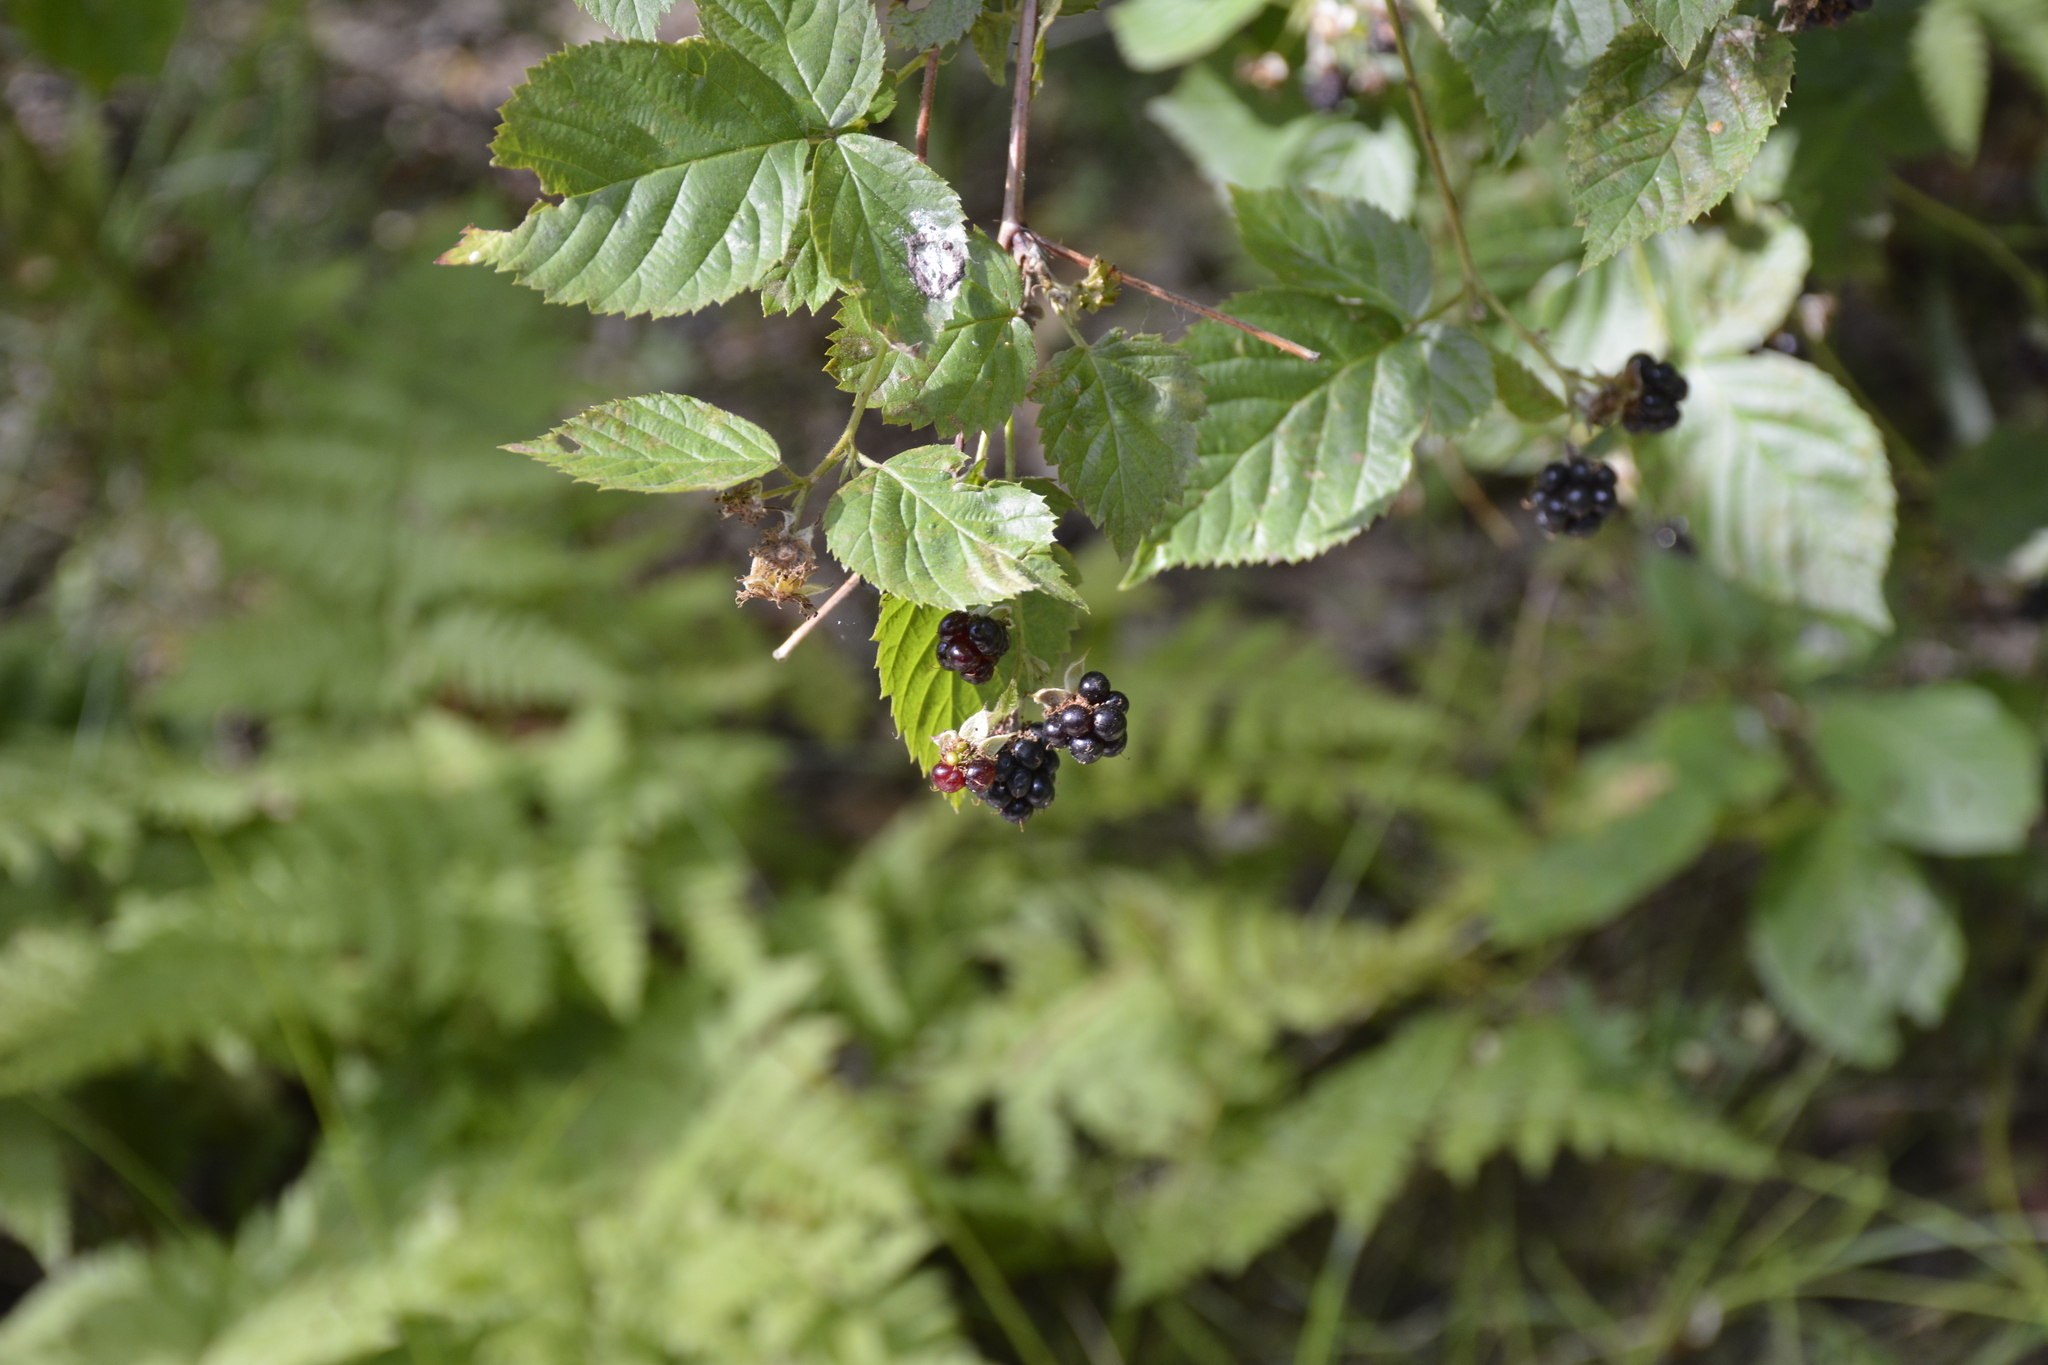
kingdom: Plantae
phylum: Tracheophyta
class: Magnoliopsida
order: Rosales
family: Rosaceae
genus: Rubus
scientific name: Rubus polonicus
